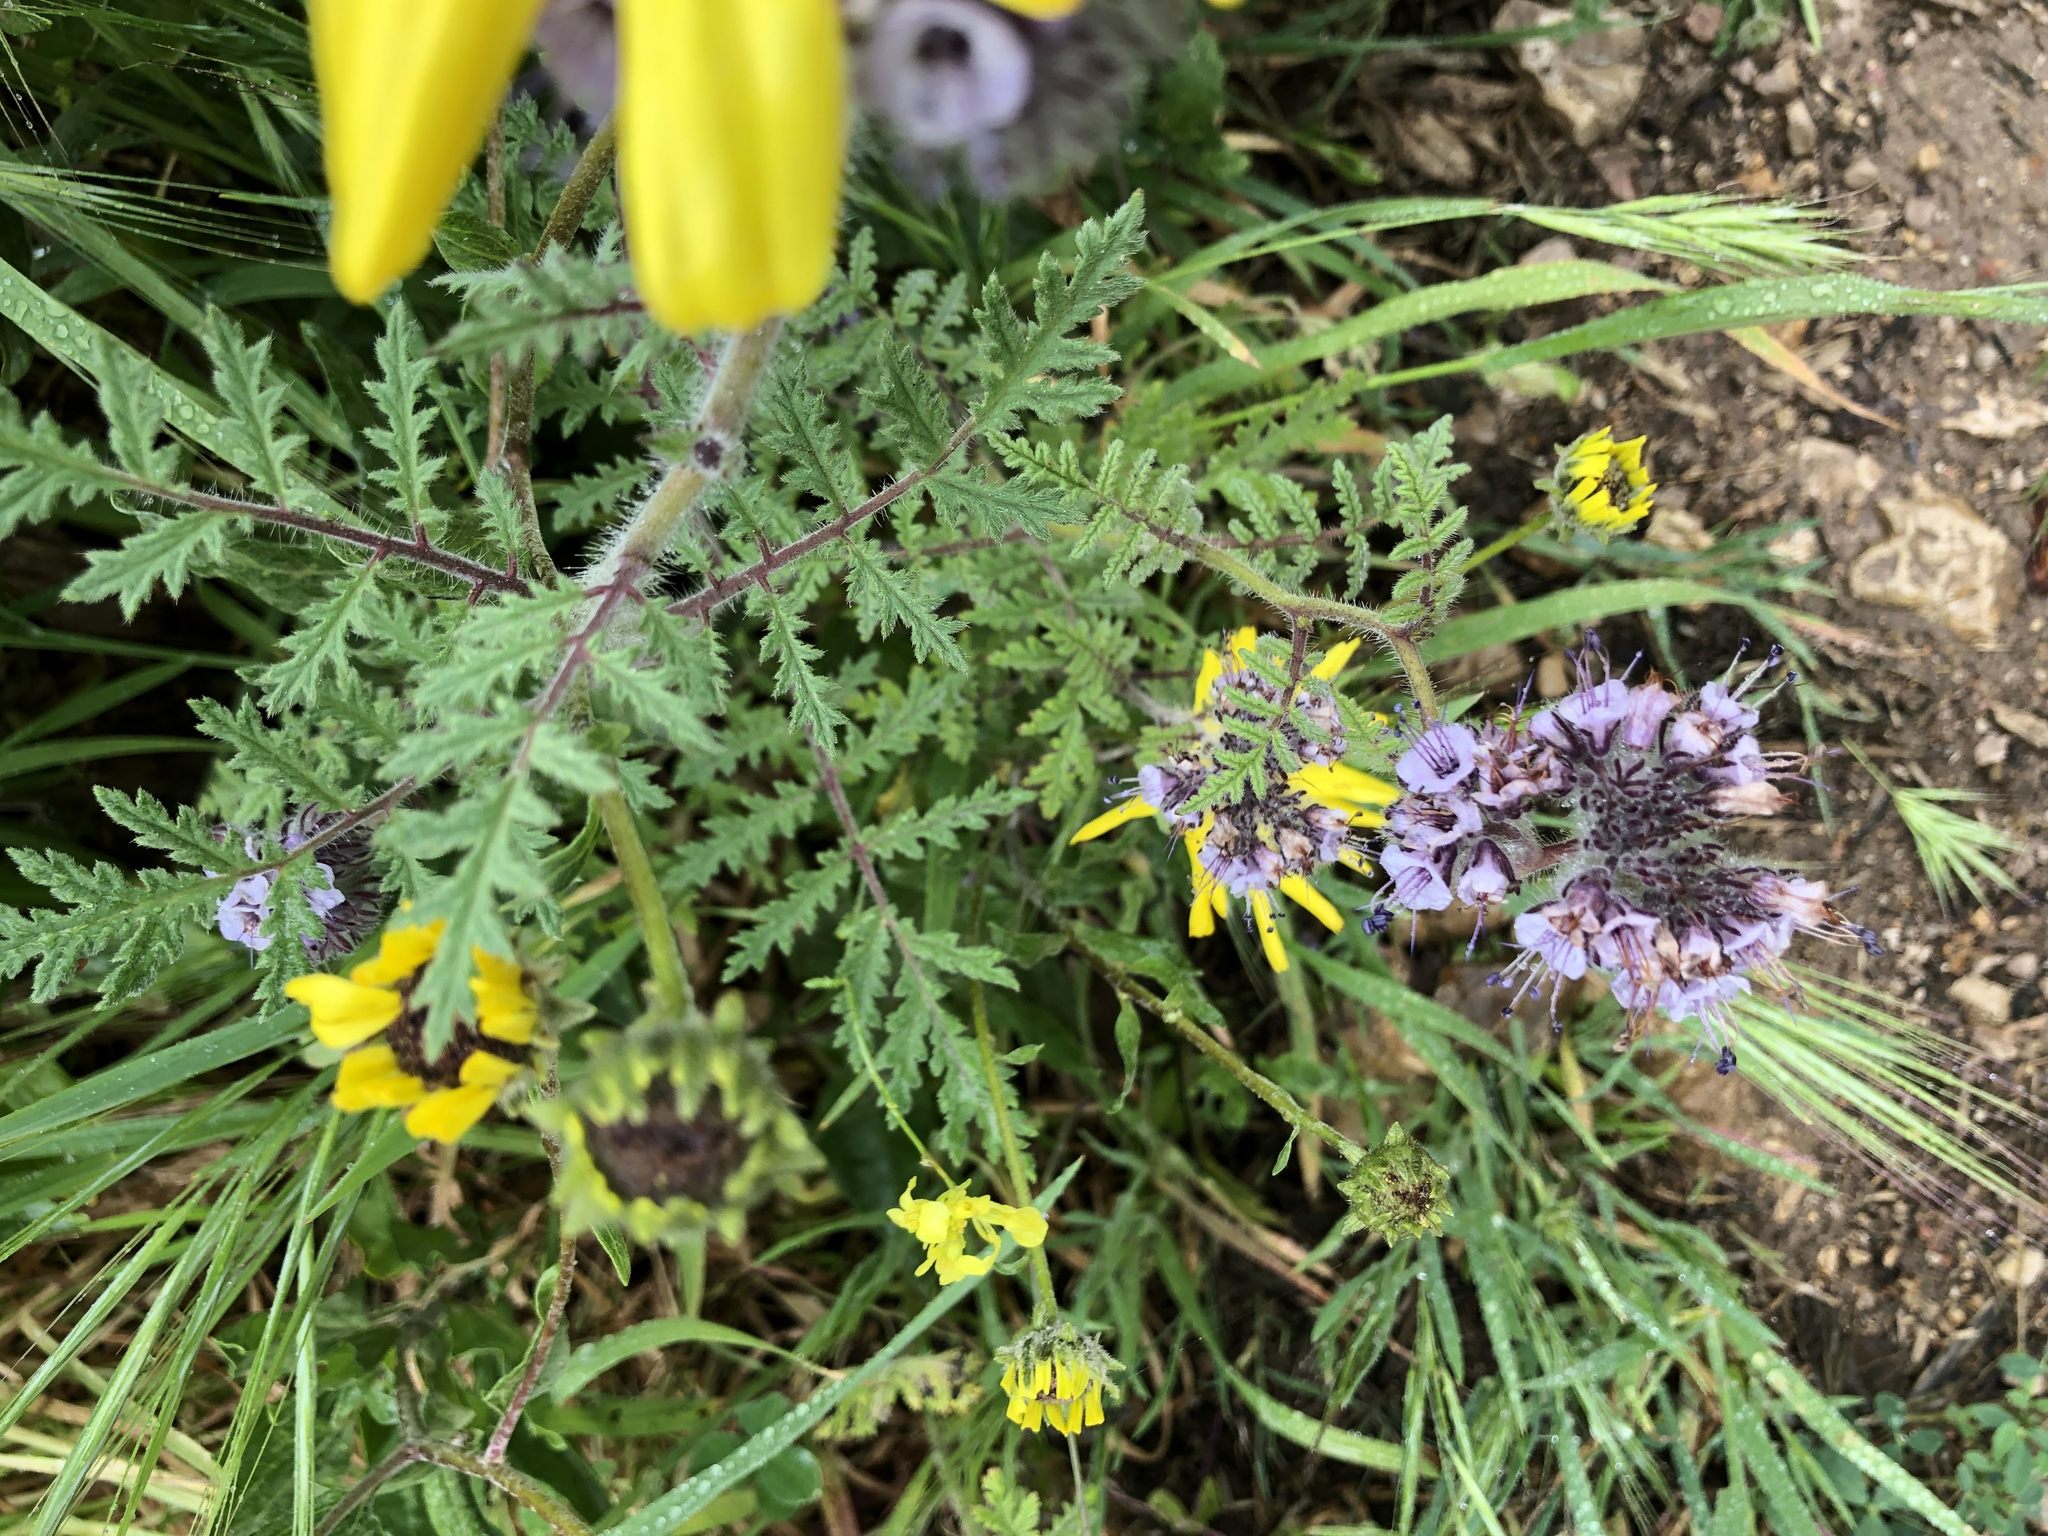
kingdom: Plantae
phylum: Tracheophyta
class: Magnoliopsida
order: Boraginales
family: Hydrophyllaceae
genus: Phacelia
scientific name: Phacelia hubbyi
